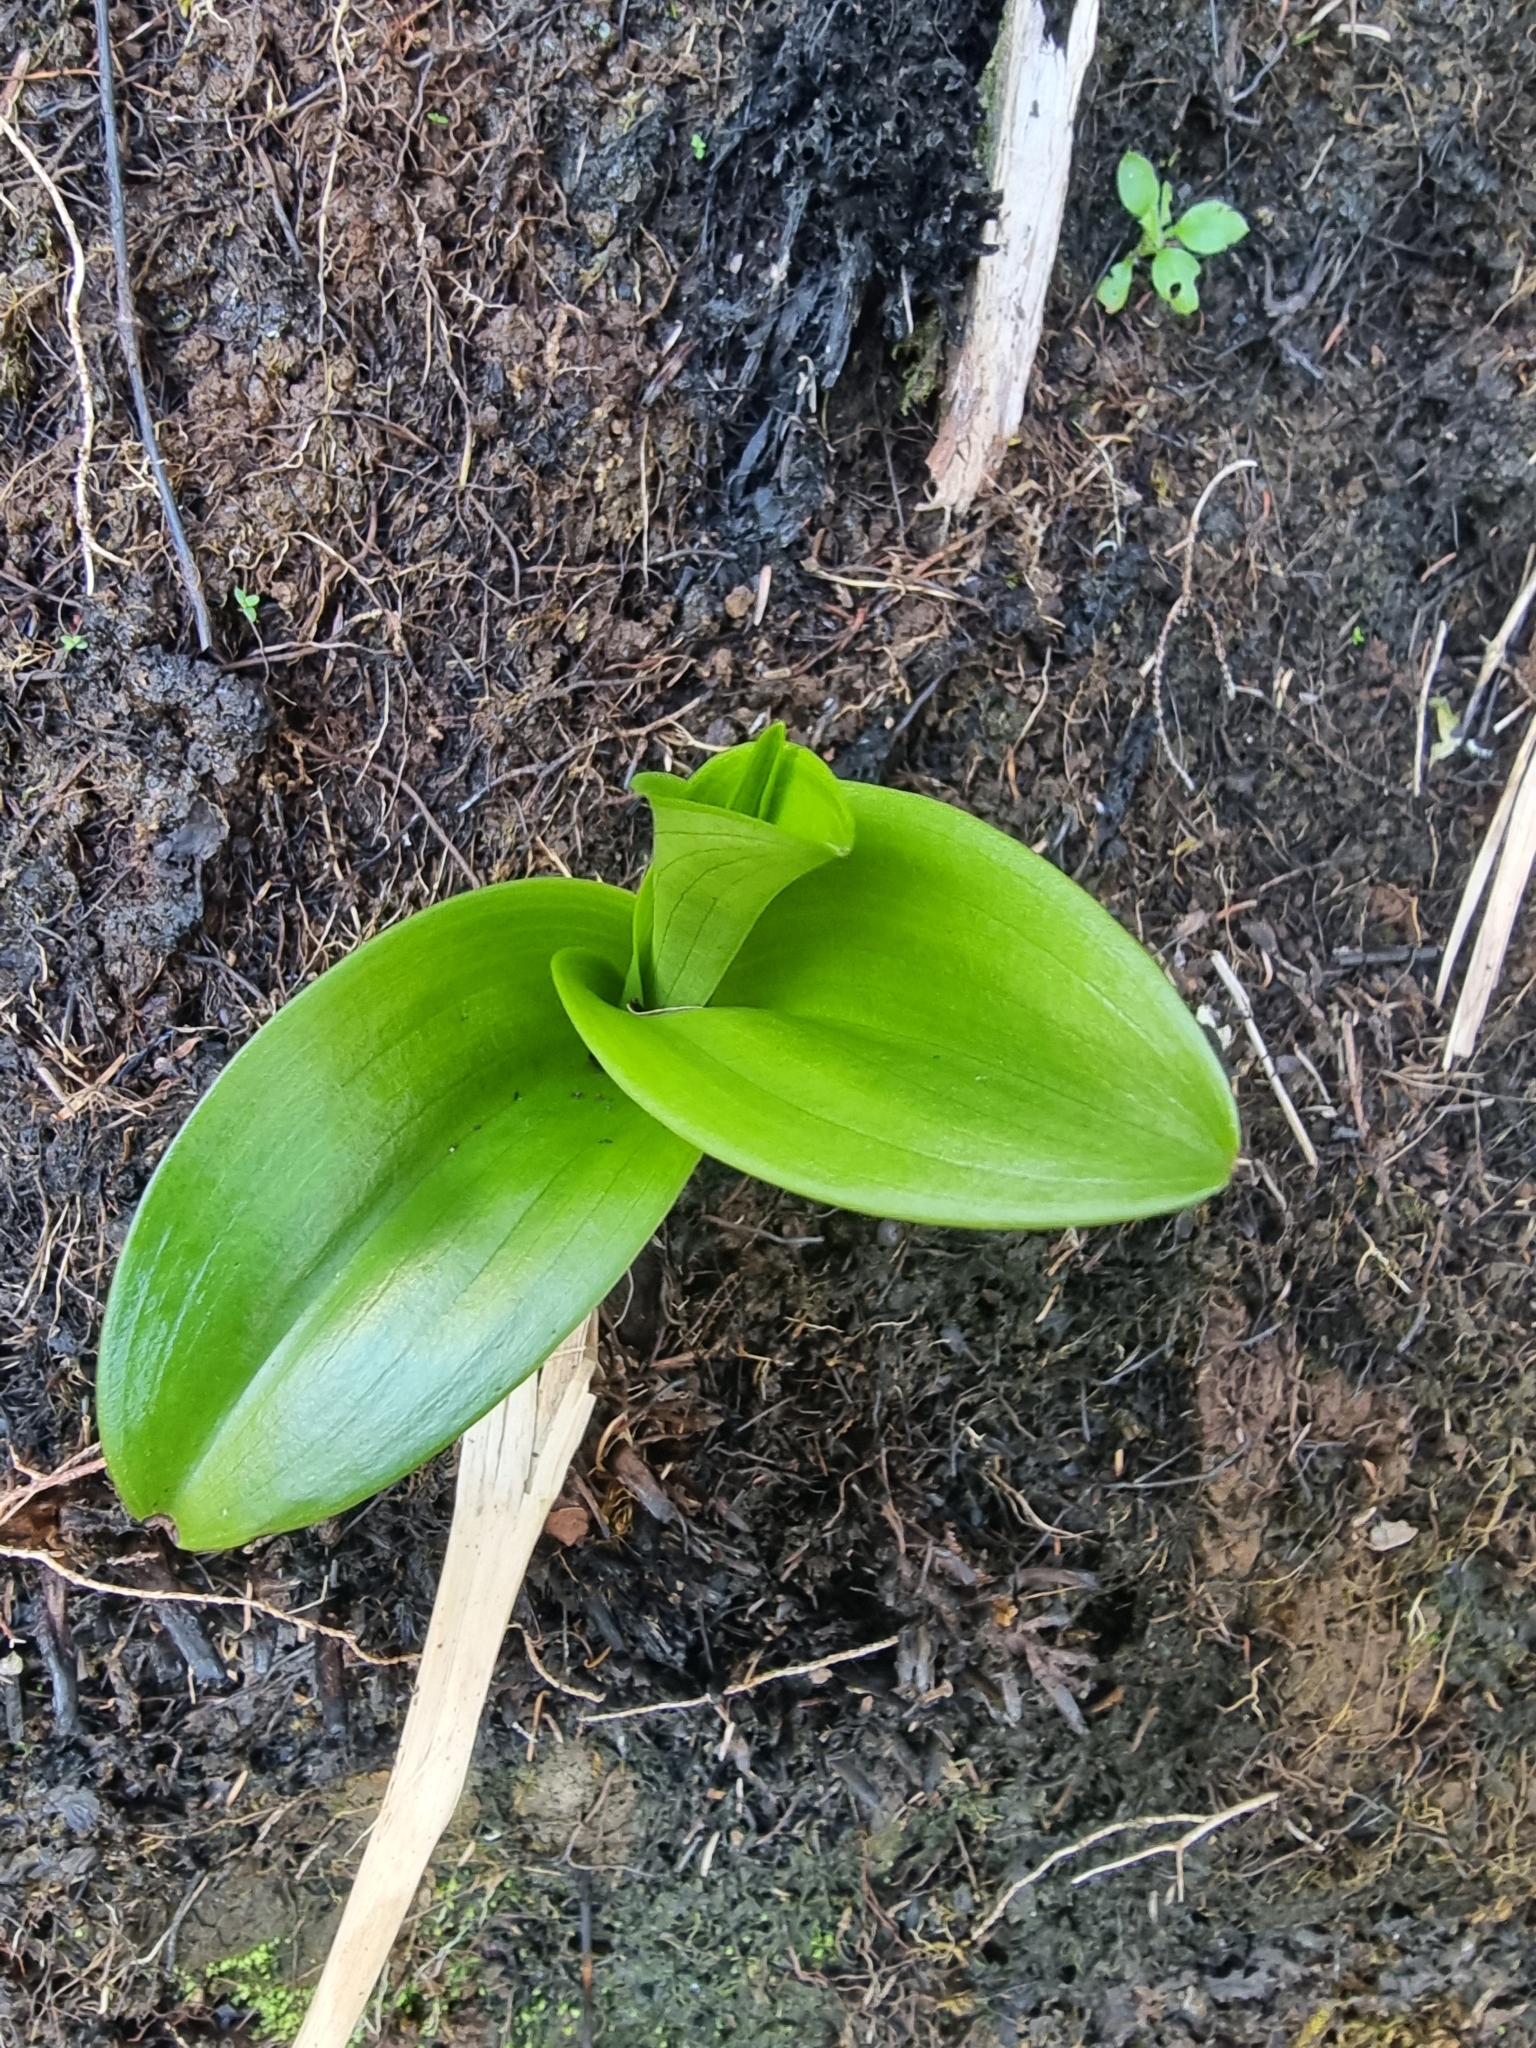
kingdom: Plantae
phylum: Tracheophyta
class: Liliopsida
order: Asparagales
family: Orchidaceae
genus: Dactylorhiza
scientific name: Dactylorhiza foliosa
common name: Richly-leaved dactylorhiza
